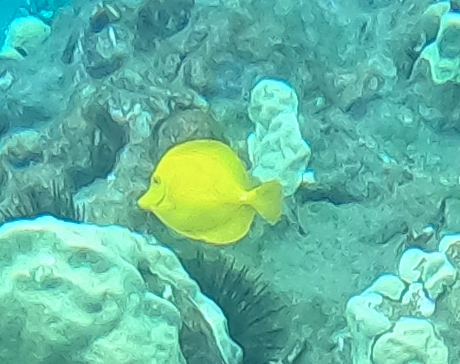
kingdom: Animalia
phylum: Chordata
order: Perciformes
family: Acanthuridae
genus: Zebrasoma
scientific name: Zebrasoma flavescens
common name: Yellow tang
